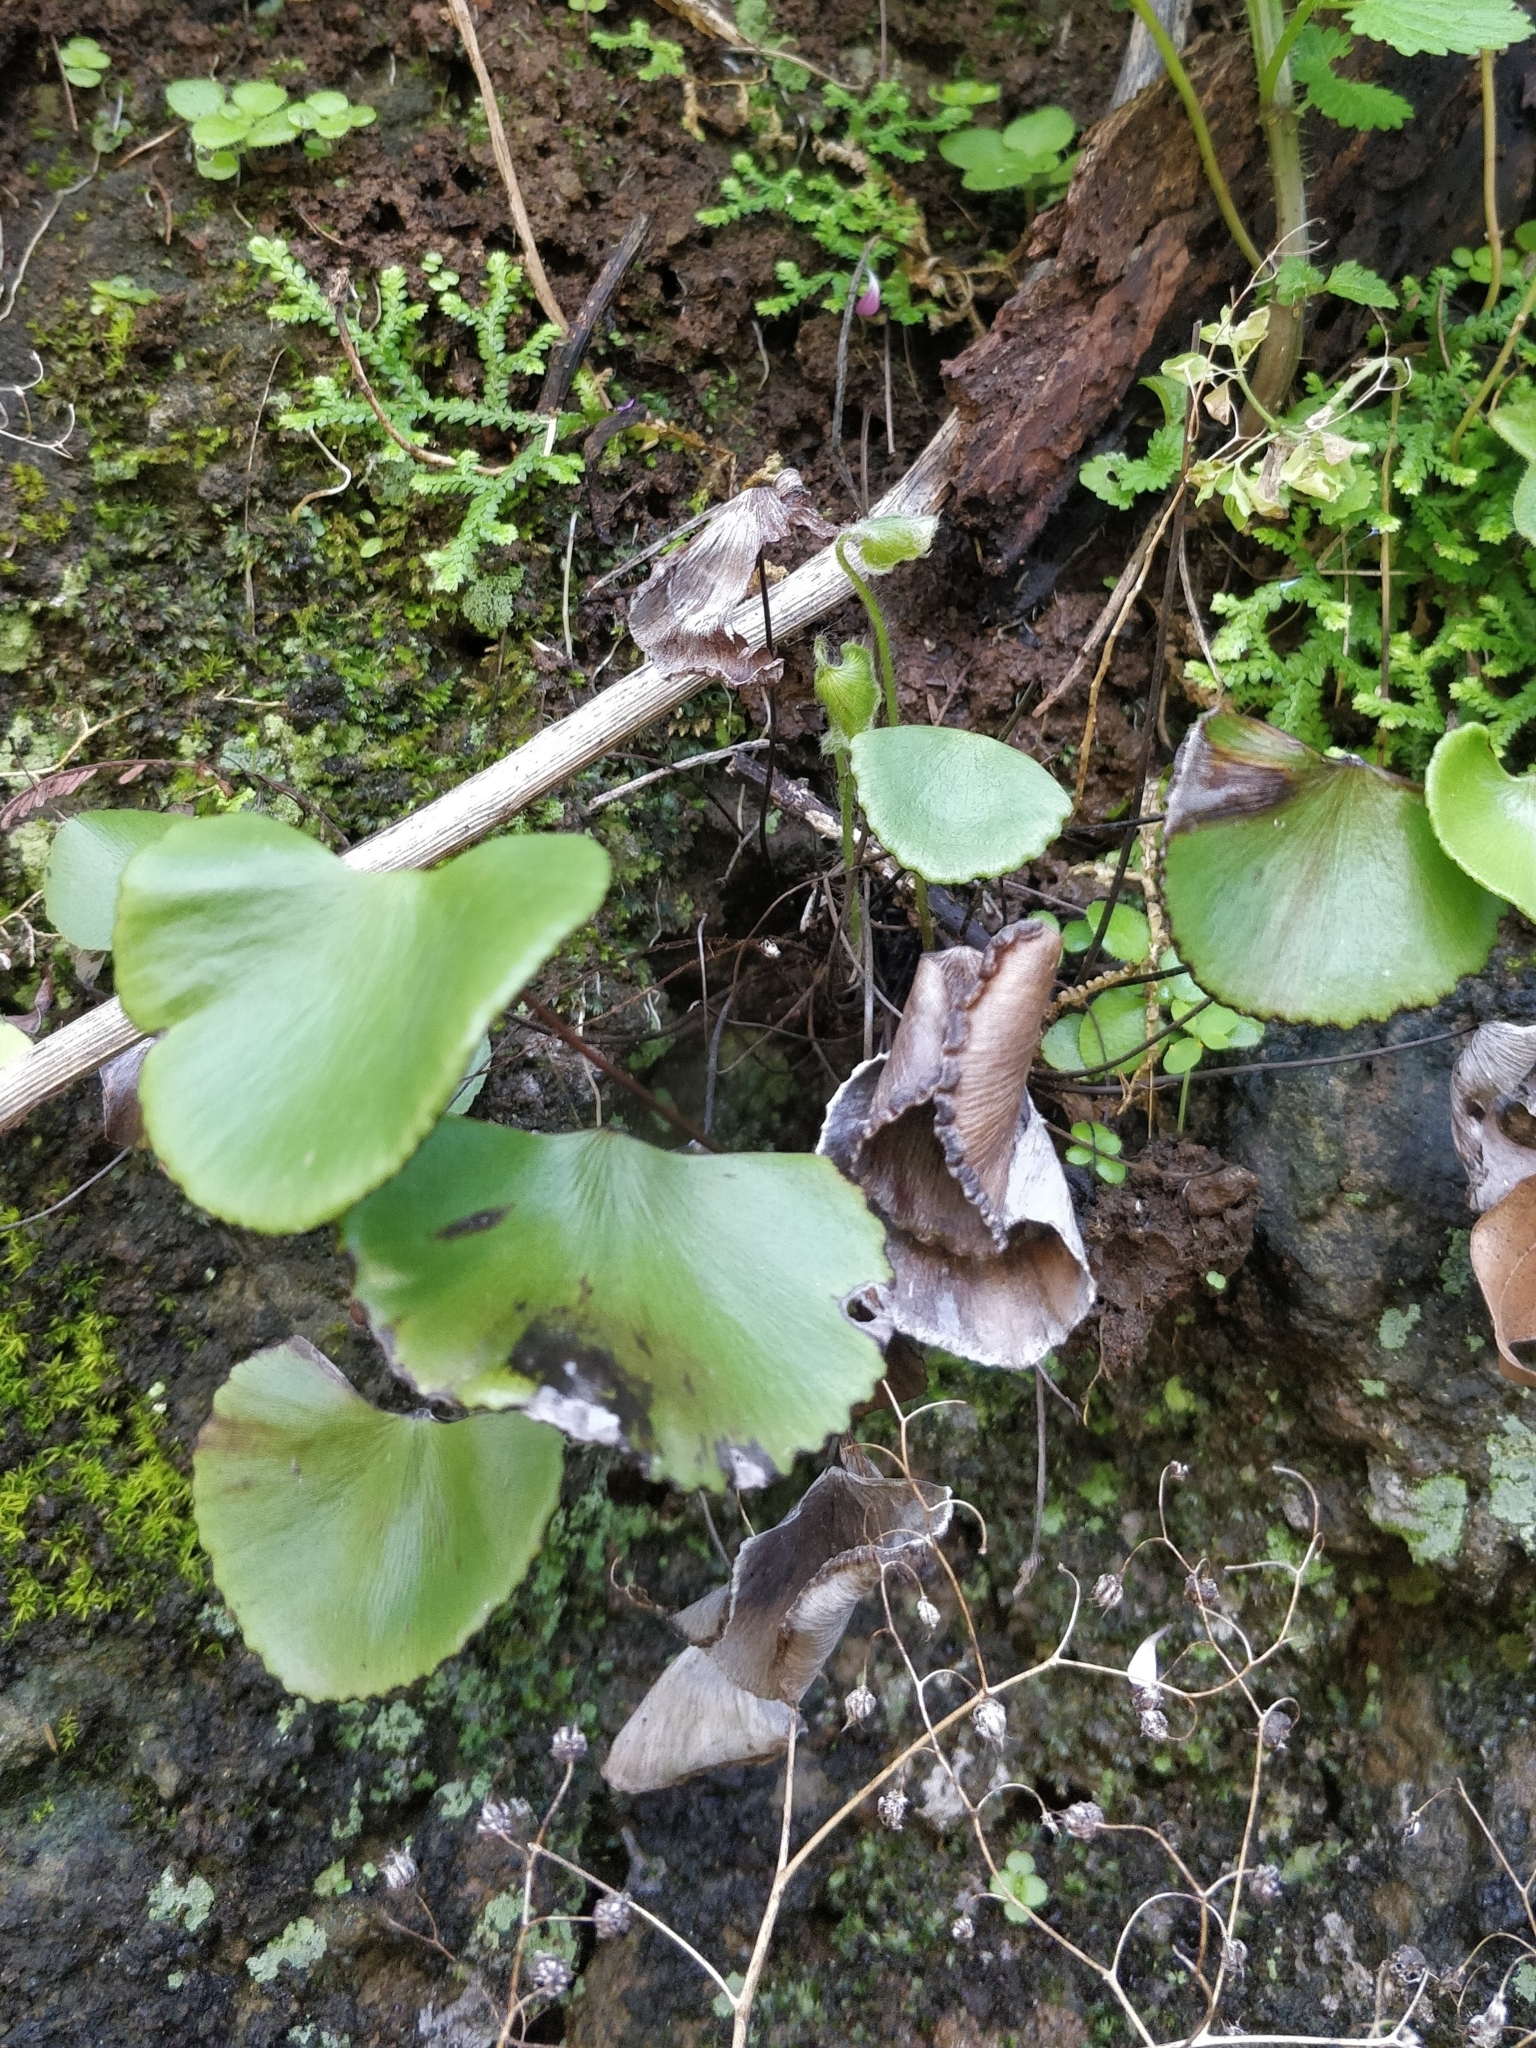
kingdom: Plantae
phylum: Tracheophyta
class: Polypodiopsida
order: Polypodiales
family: Pteridaceae
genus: Adiantum
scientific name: Adiantum reniforme
